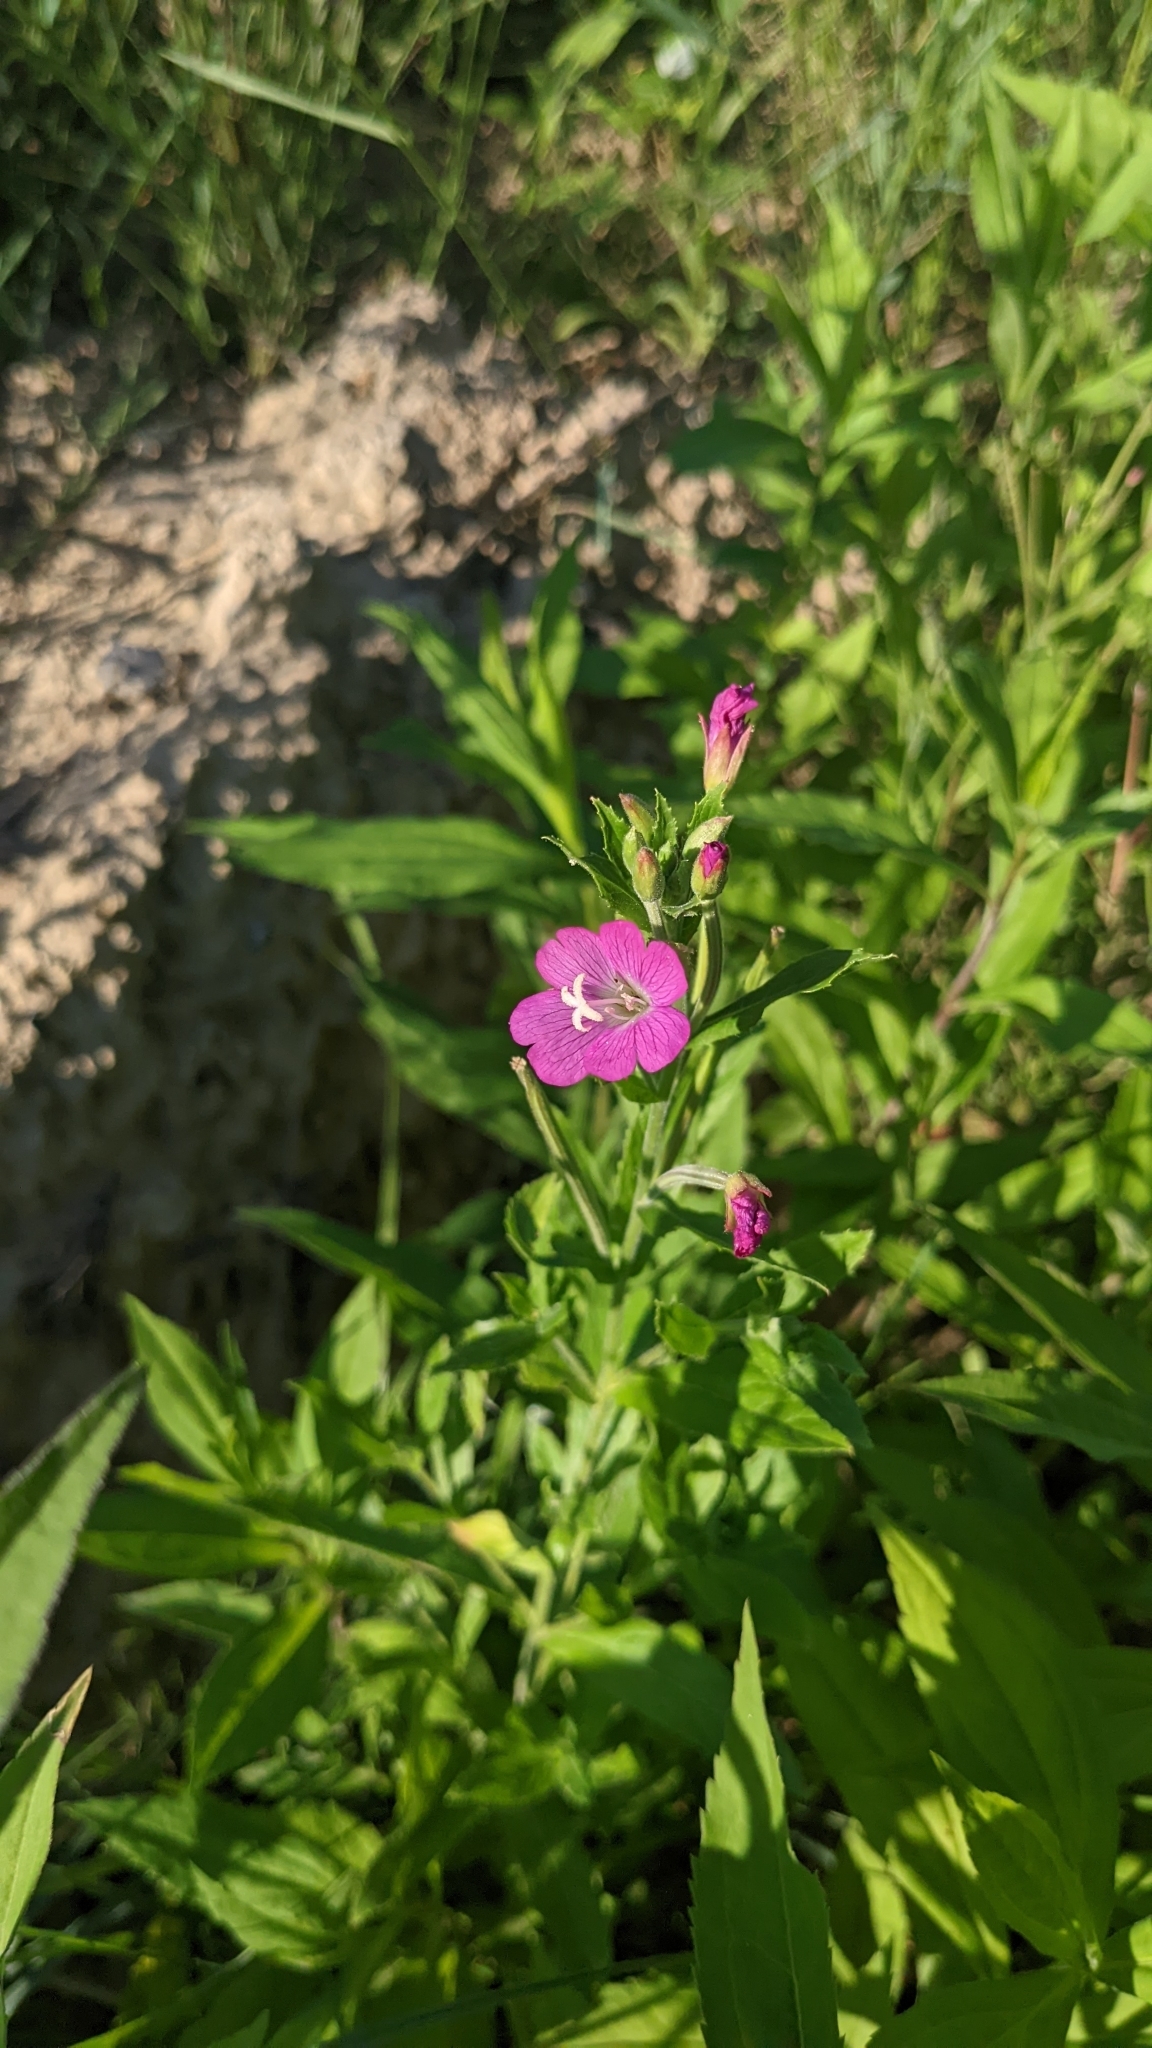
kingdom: Plantae
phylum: Tracheophyta
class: Magnoliopsida
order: Myrtales
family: Onagraceae
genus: Epilobium
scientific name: Epilobium hirsutum
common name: Great willowherb
